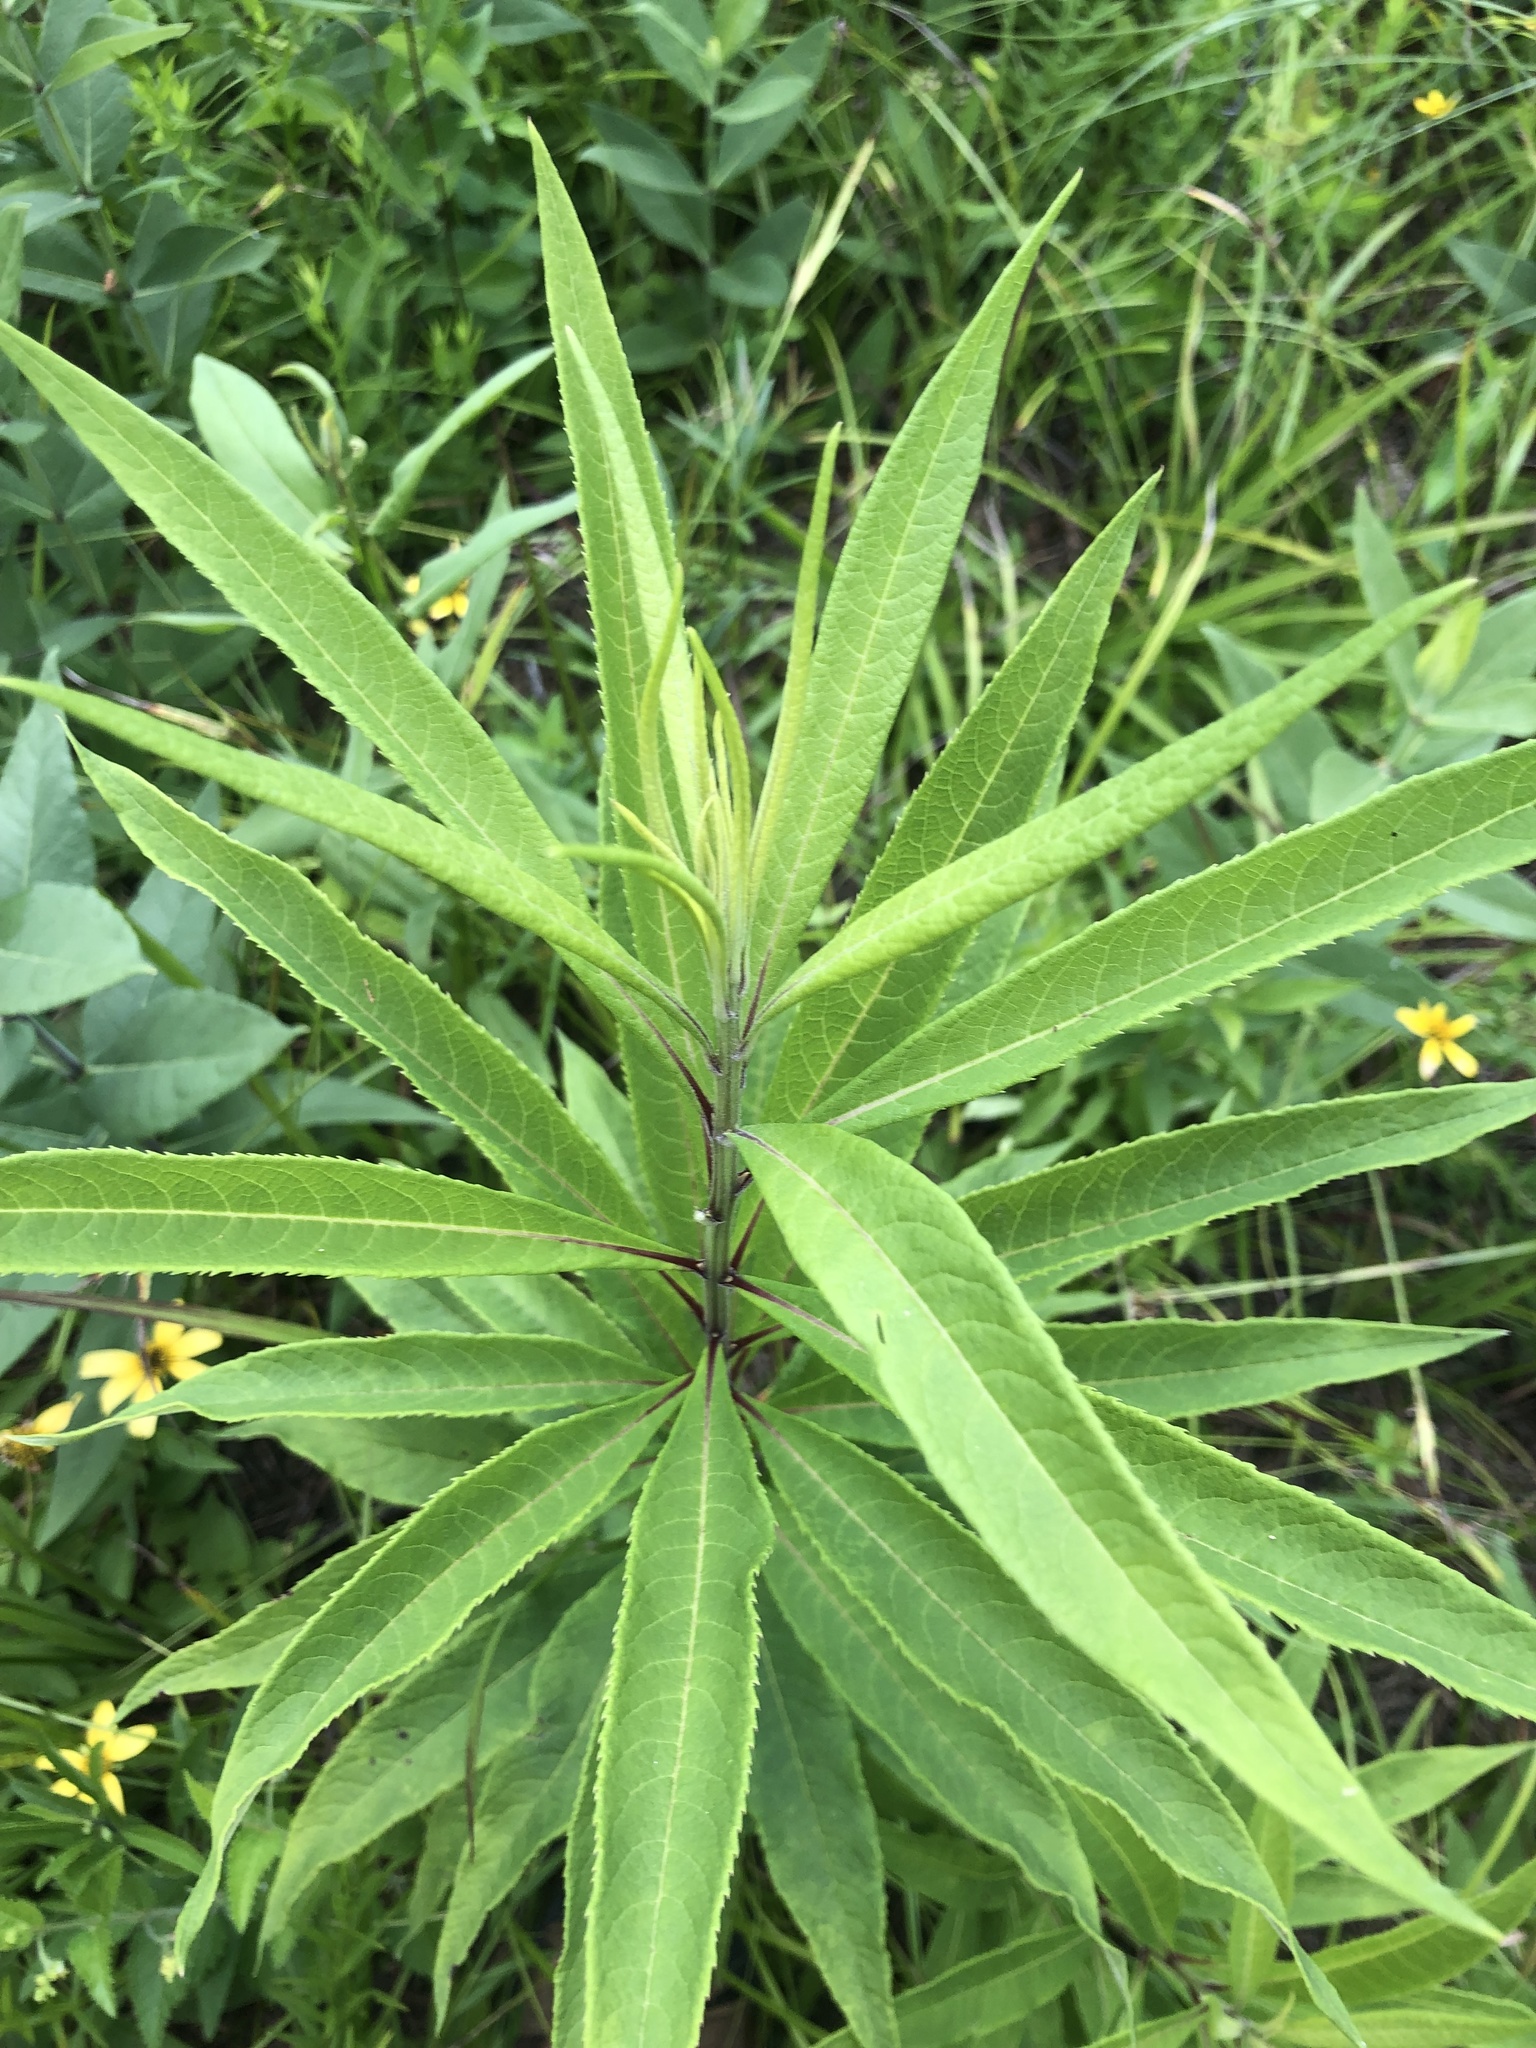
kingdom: Plantae
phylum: Tracheophyta
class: Magnoliopsida
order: Asterales
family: Asteraceae
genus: Vernonia
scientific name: Vernonia missurica
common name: Missouri ironweed
